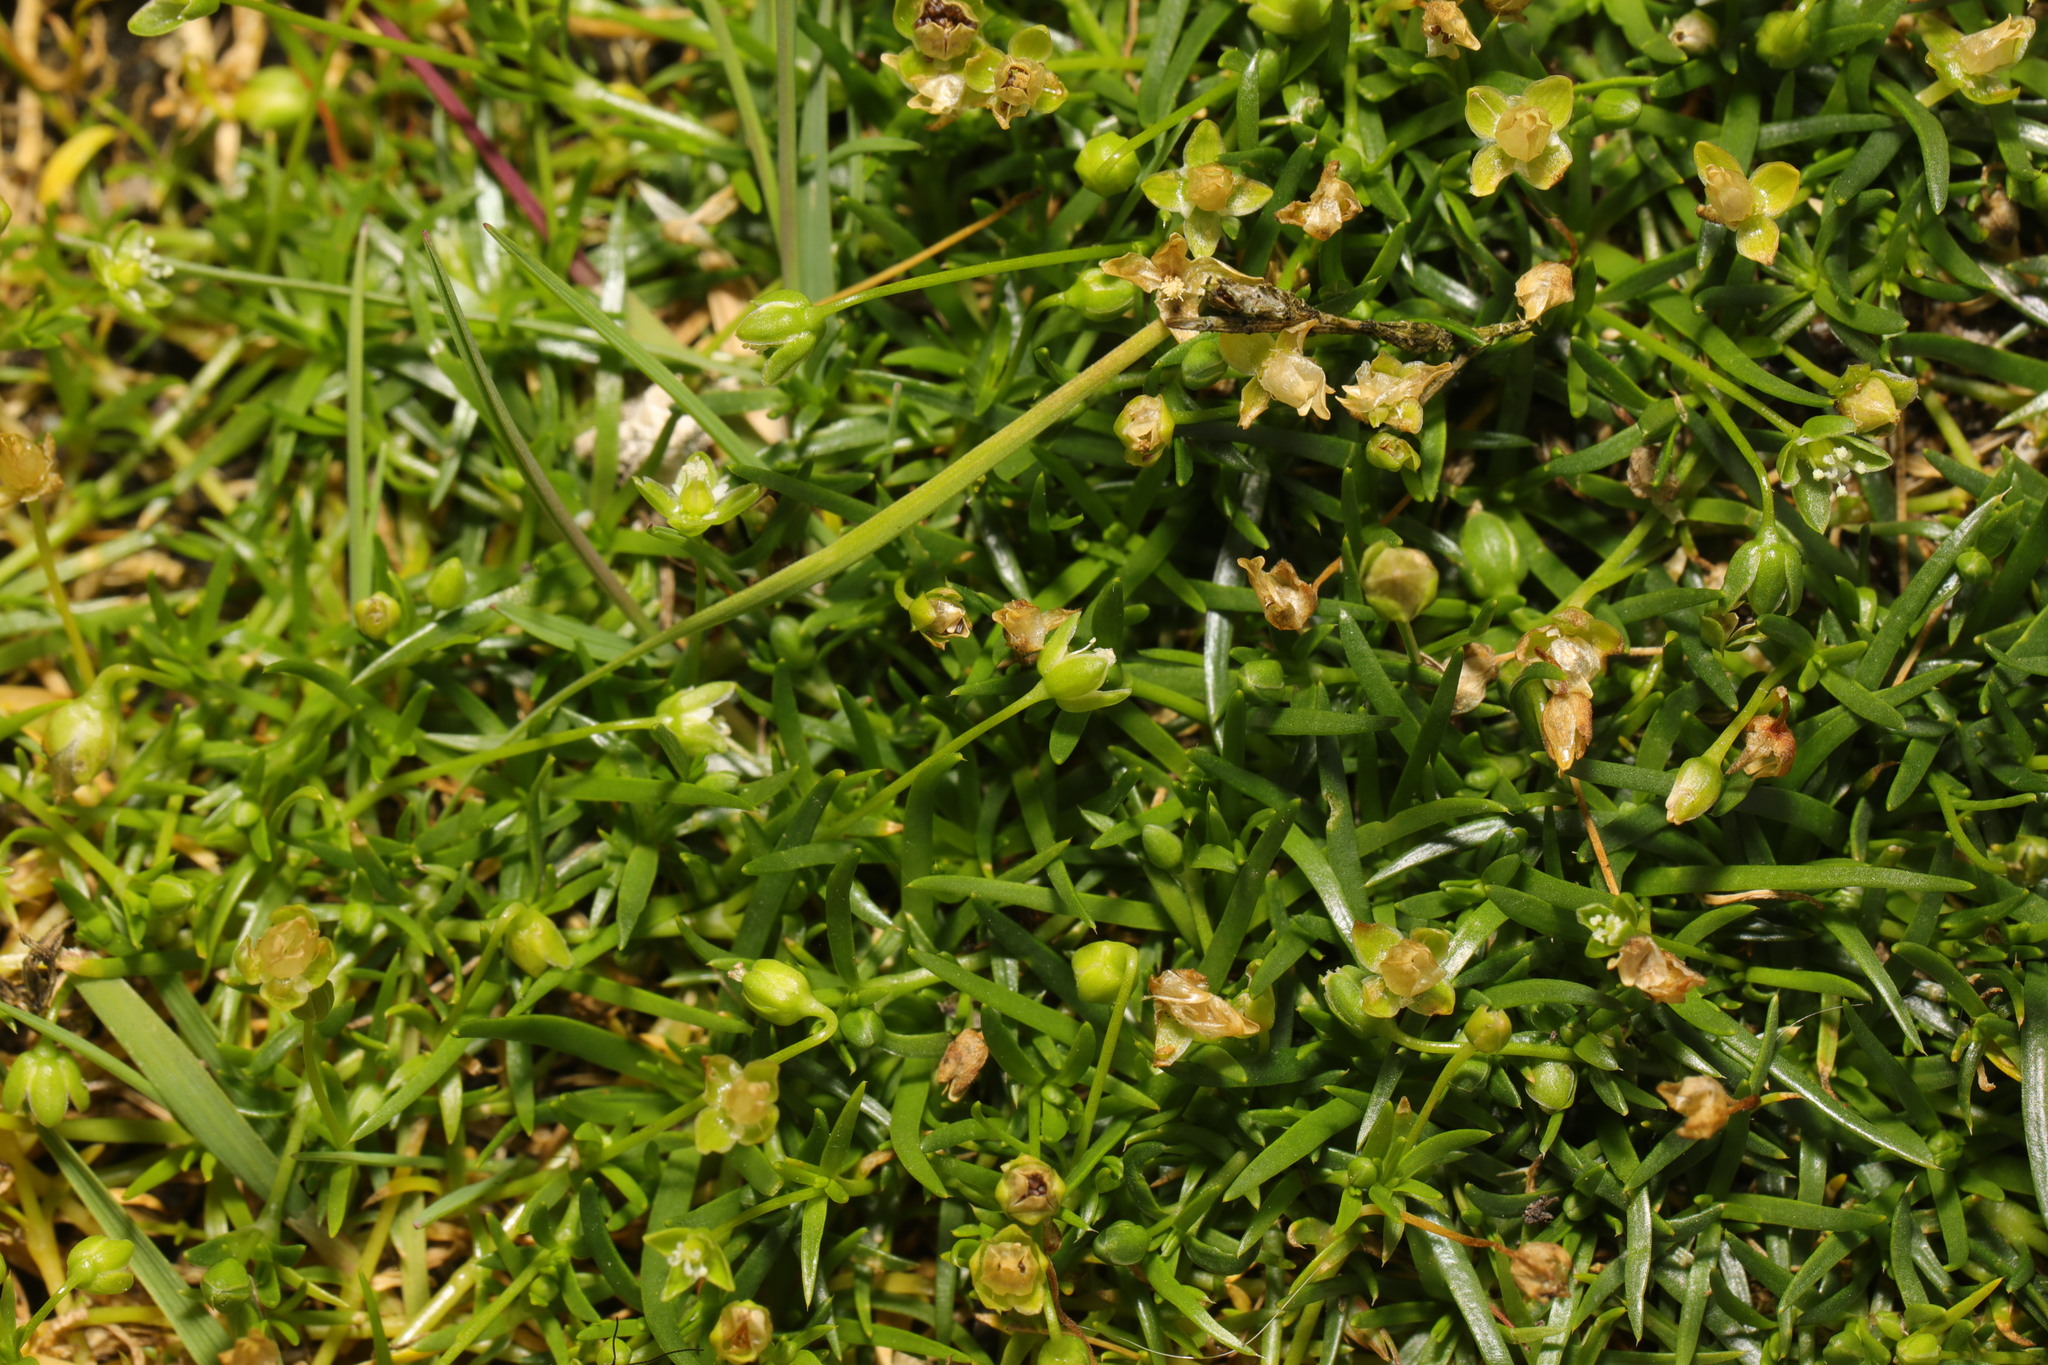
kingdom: Plantae
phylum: Tracheophyta
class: Magnoliopsida
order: Caryophyllales
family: Caryophyllaceae
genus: Sagina
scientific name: Sagina procumbens
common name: Procumbent pearlwort
